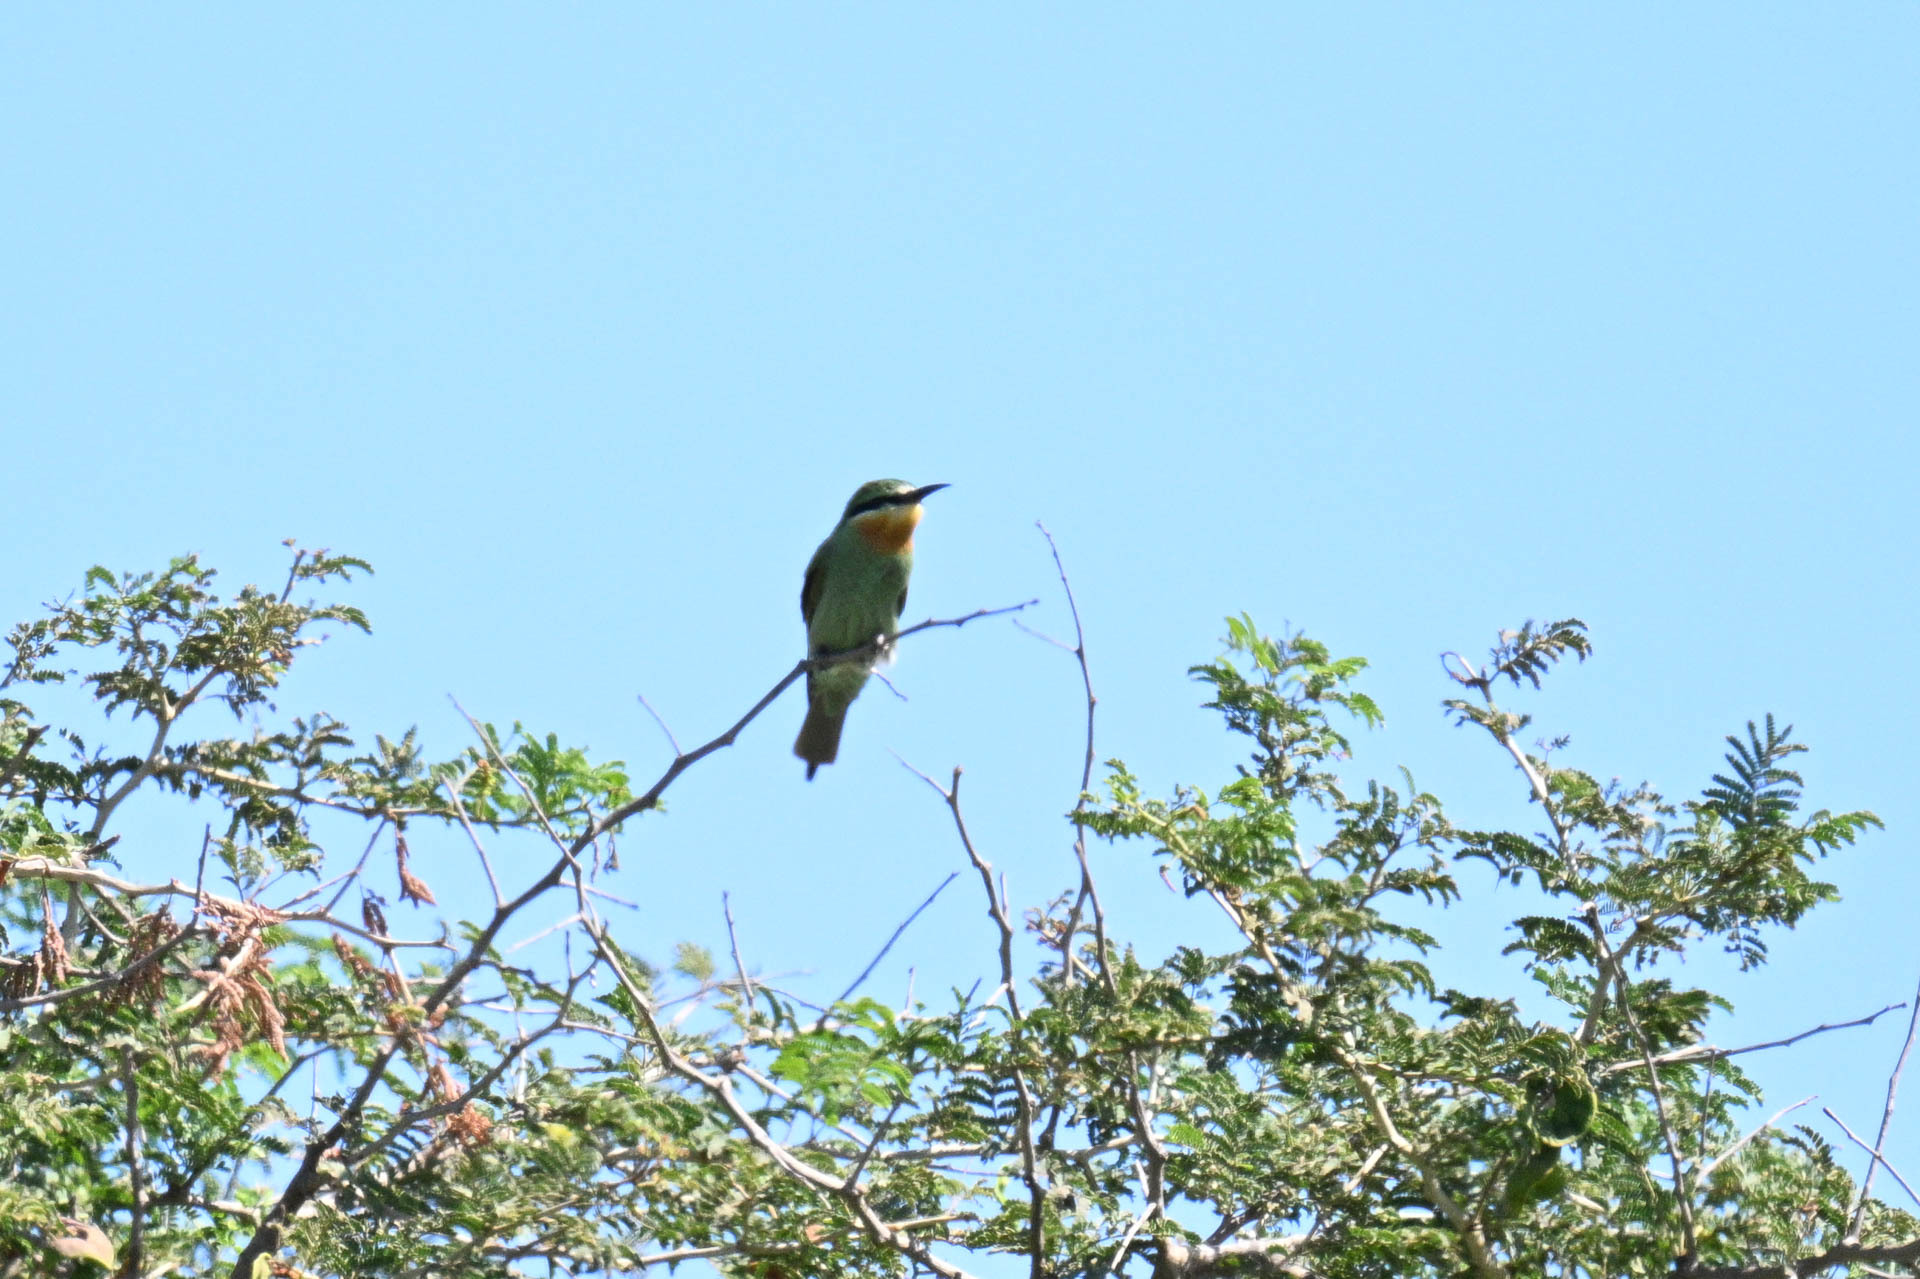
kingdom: Animalia
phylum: Chordata
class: Aves
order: Coraciiformes
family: Meropidae
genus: Merops
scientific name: Merops persicus
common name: Blue-cheeked bee-eater
